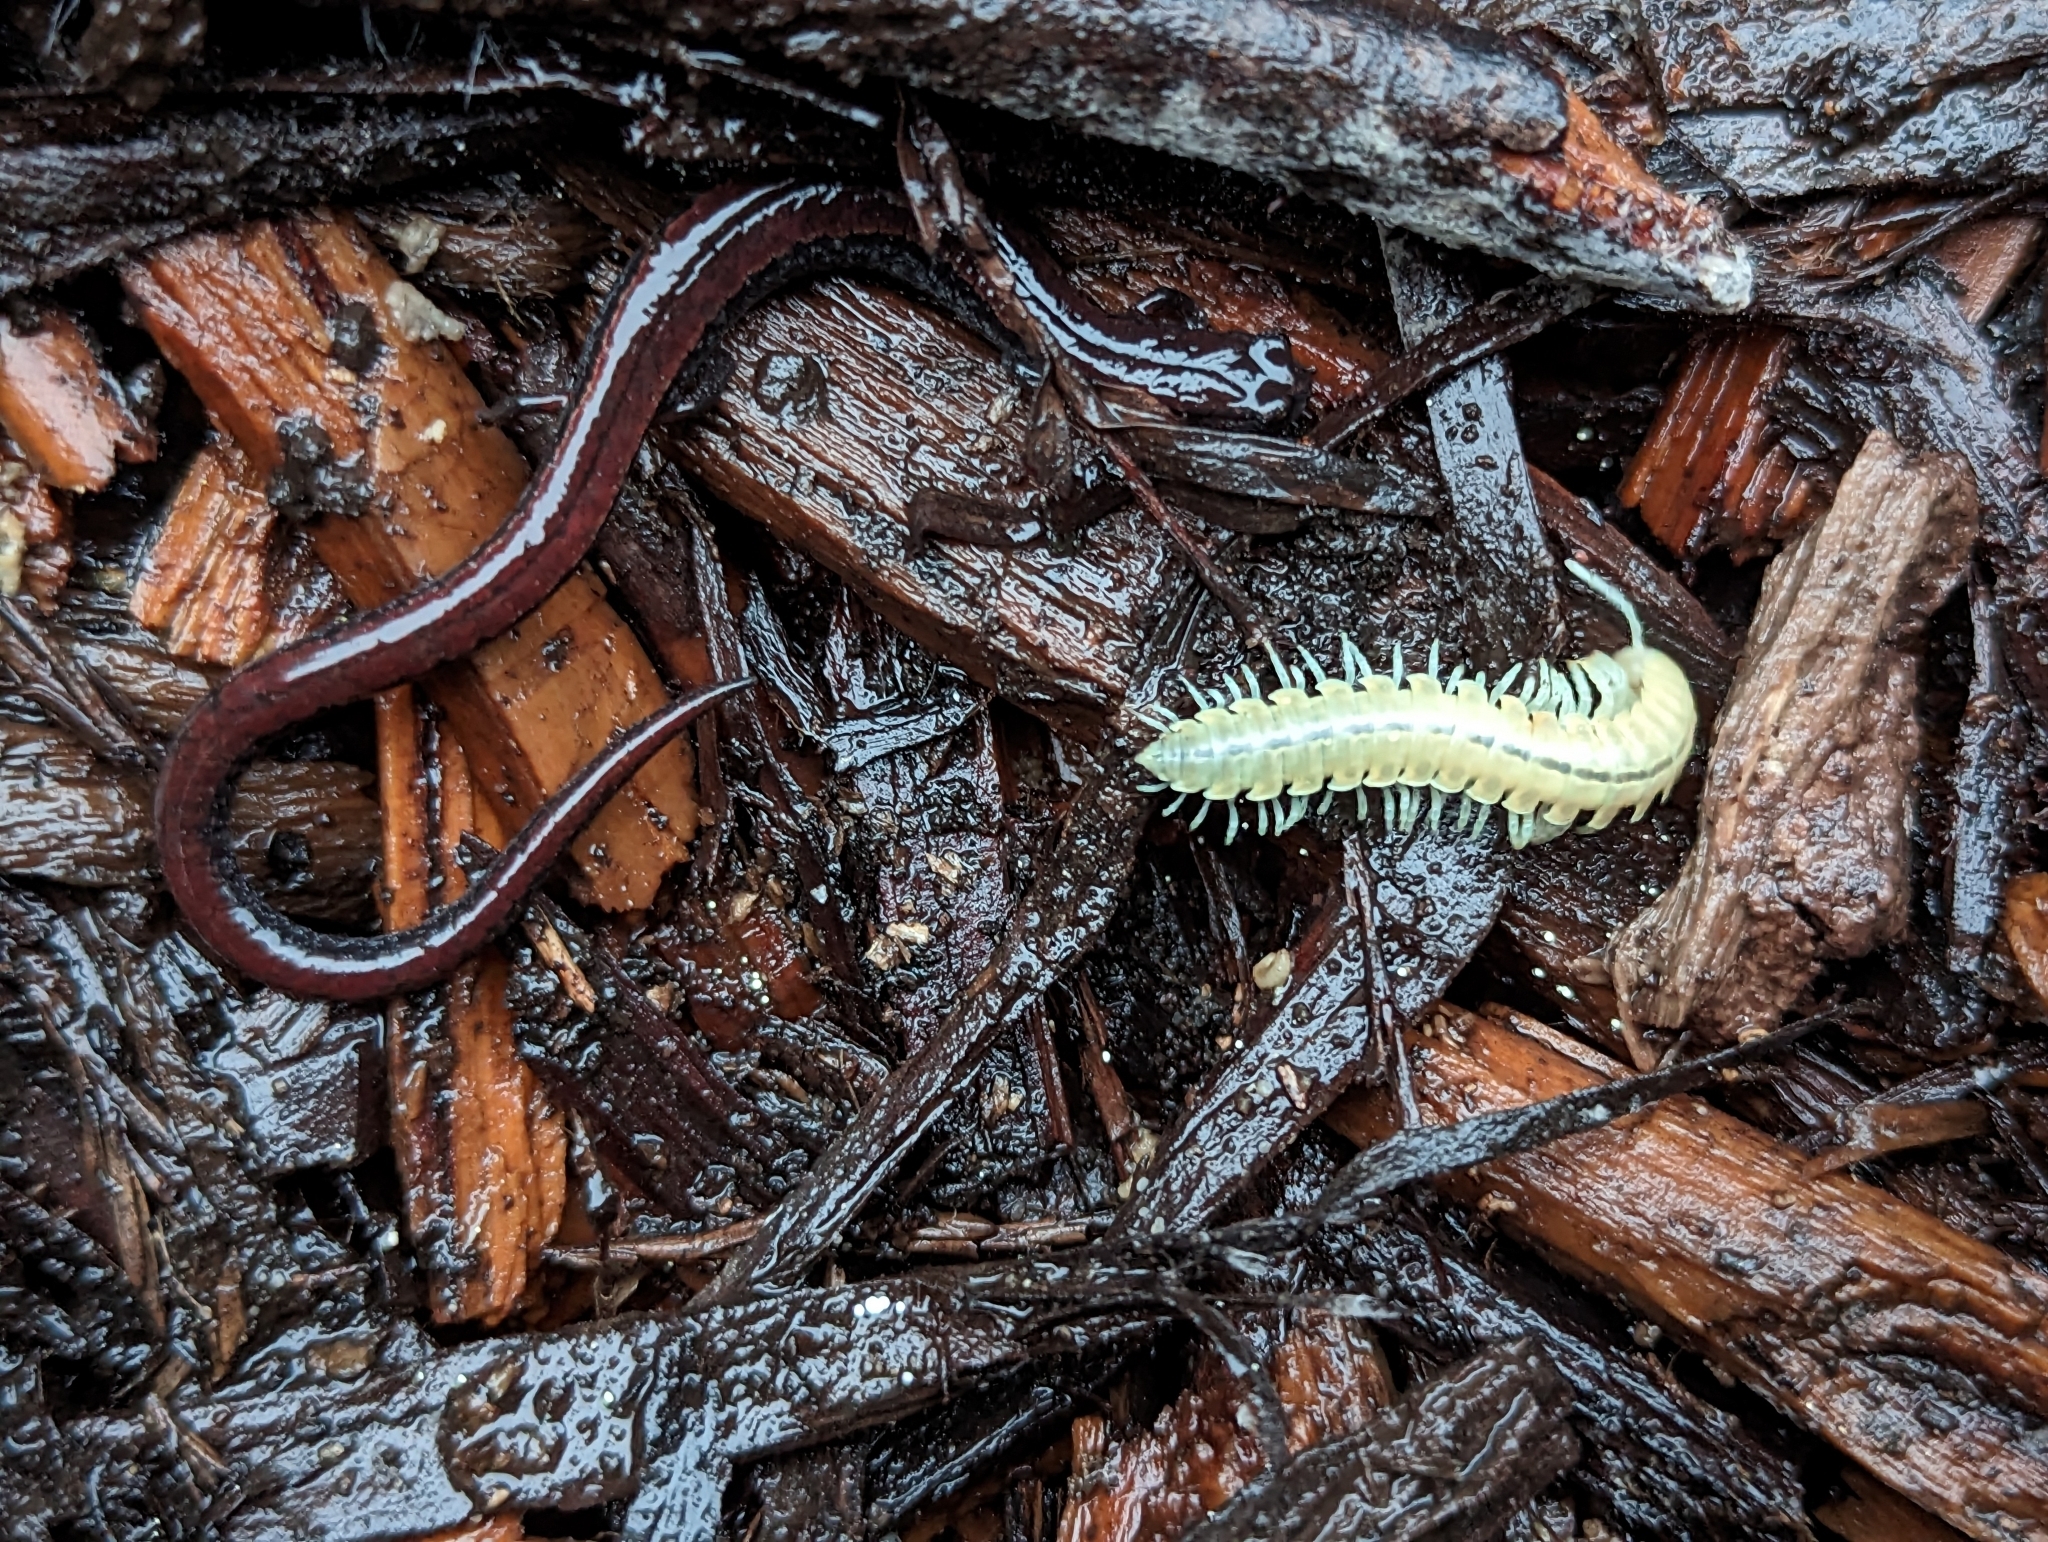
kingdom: Animalia
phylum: Arthropoda
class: Diplopoda
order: Polydesmida
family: Xystodesmidae
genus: Xystocheir
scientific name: Xystocheir dissecta
